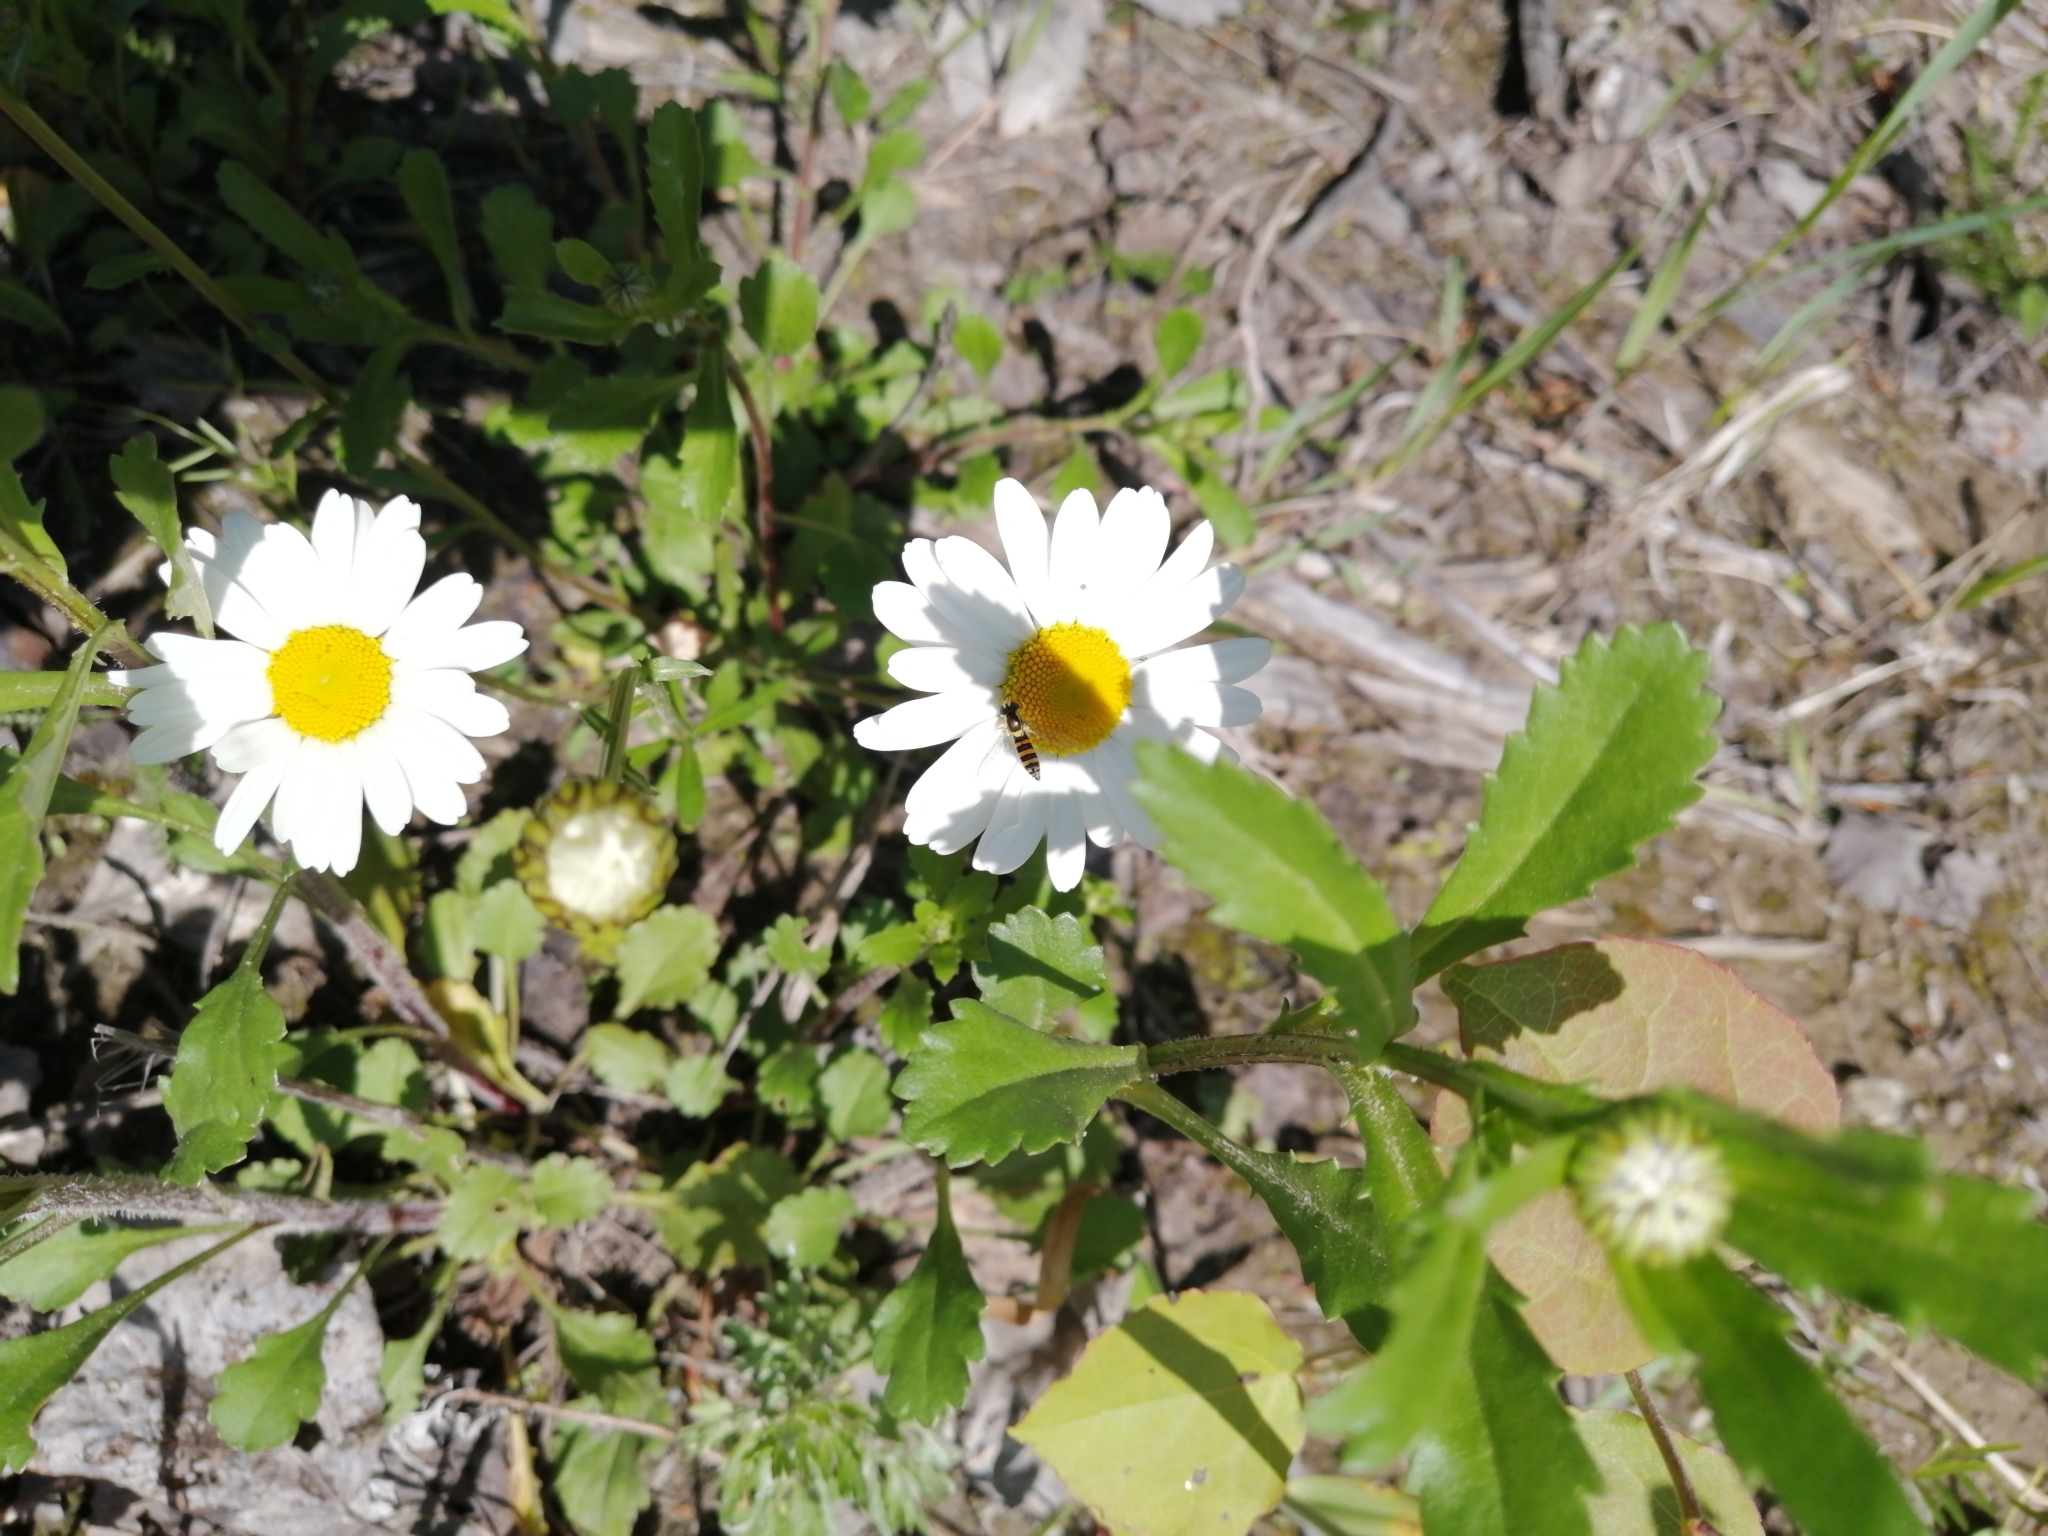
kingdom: Plantae
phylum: Tracheophyta
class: Magnoliopsida
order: Asterales
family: Asteraceae
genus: Leucanthemum
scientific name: Leucanthemum ircutianum
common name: Daisy
